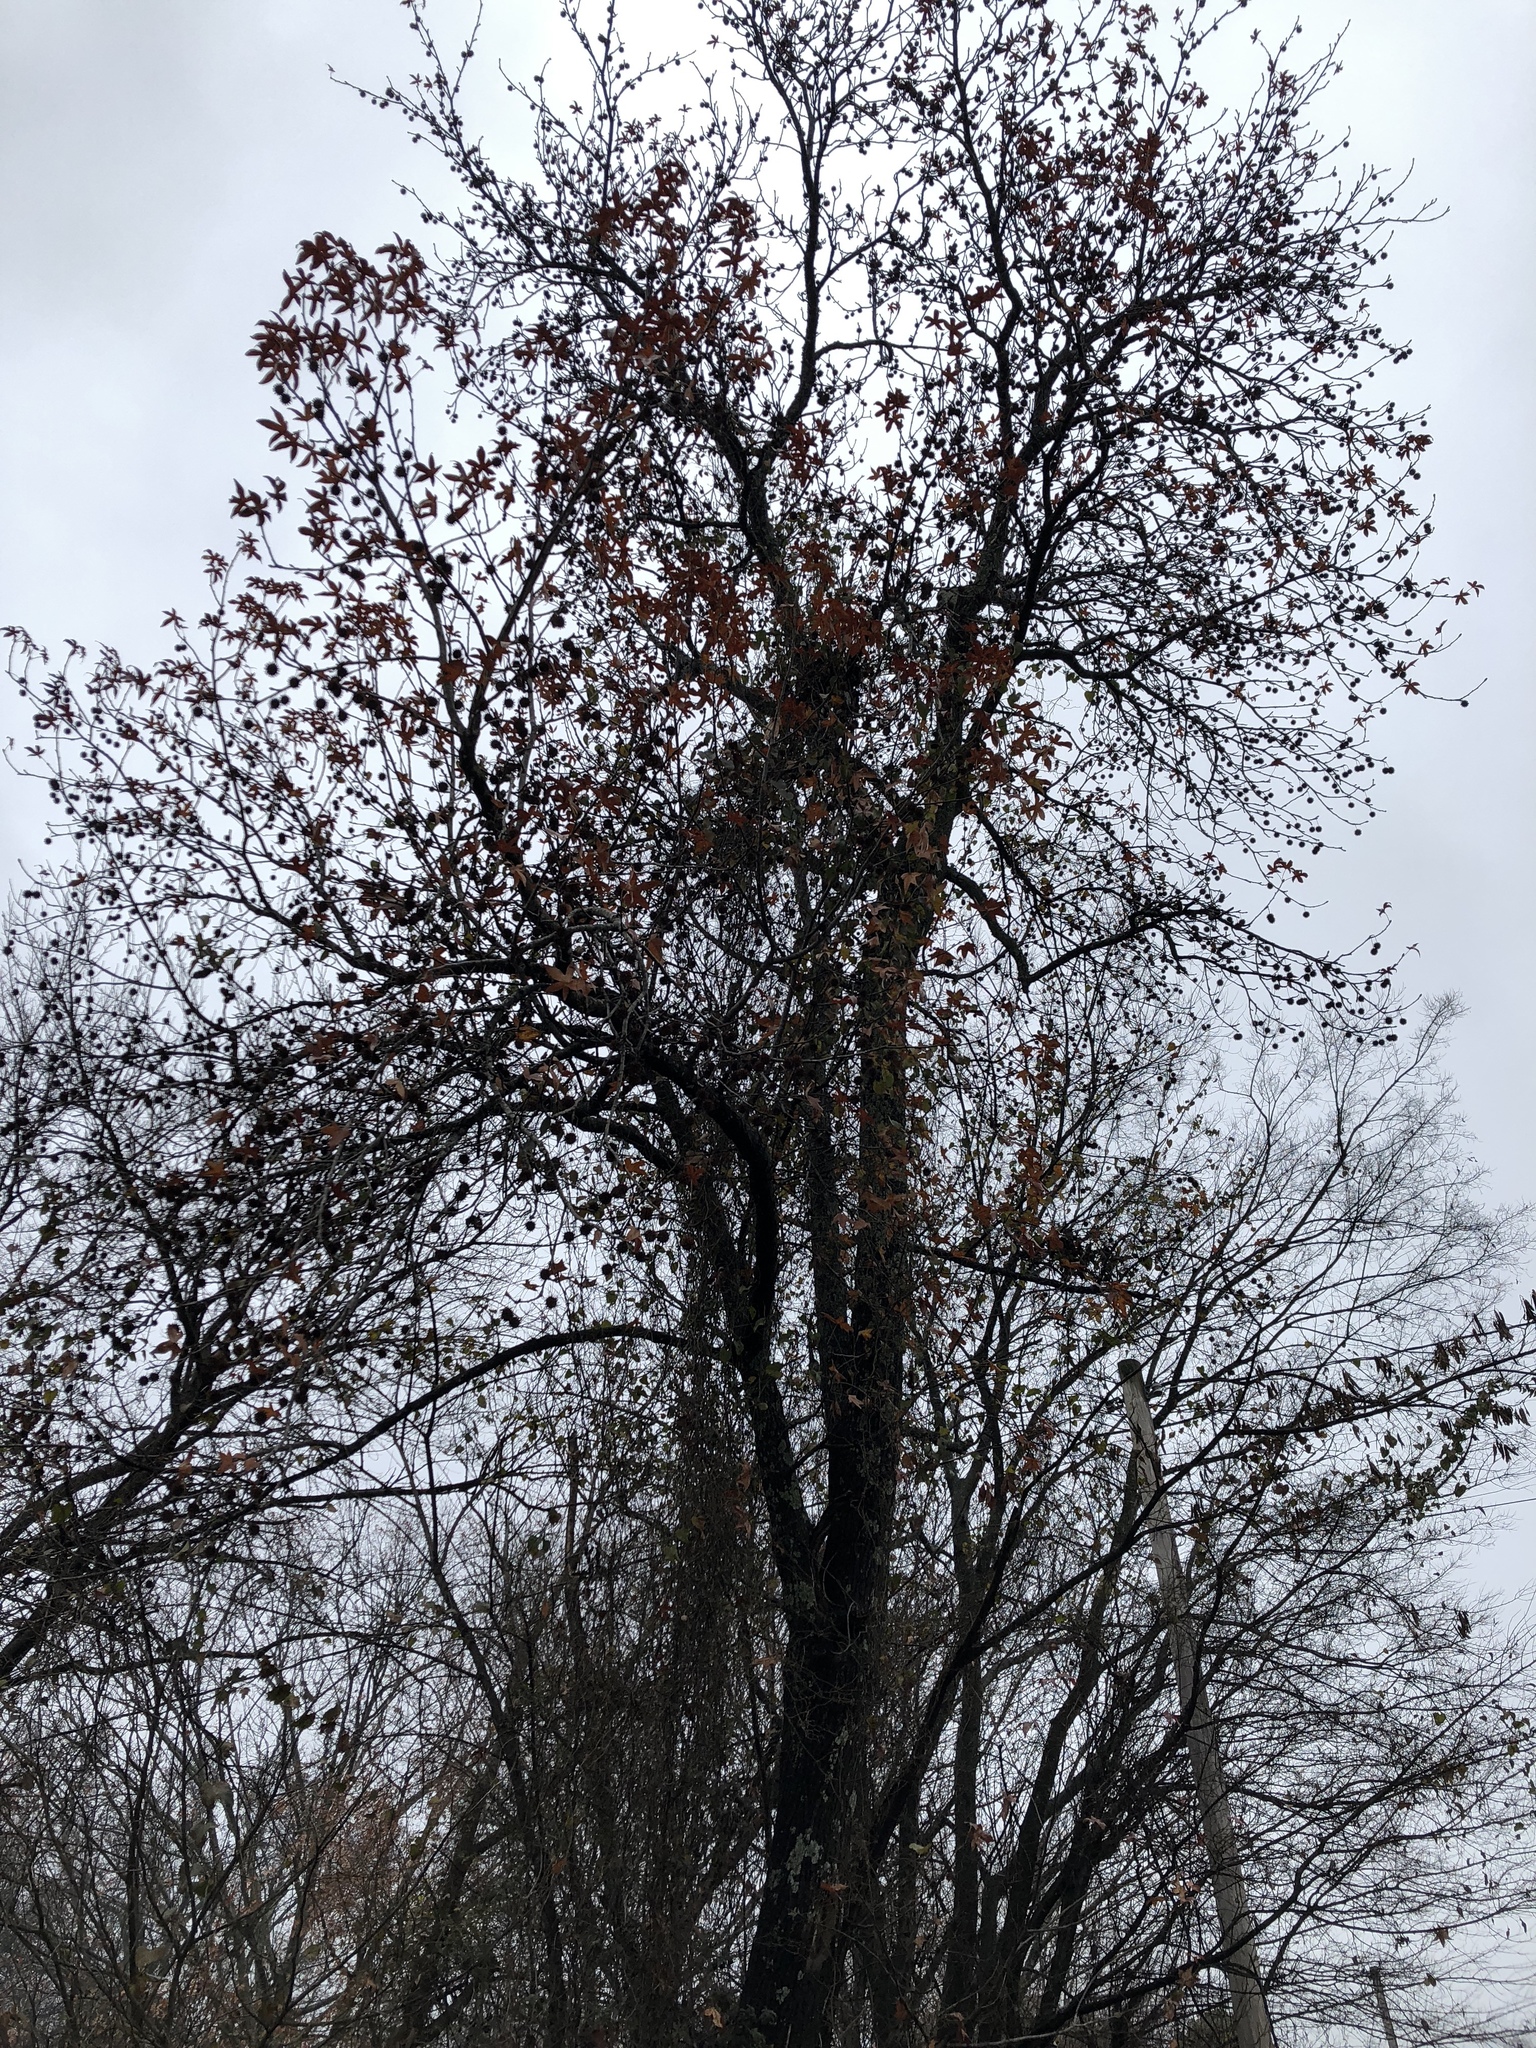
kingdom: Plantae
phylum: Tracheophyta
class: Magnoliopsida
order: Saxifragales
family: Altingiaceae
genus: Liquidambar
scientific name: Liquidambar styraciflua
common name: Sweet gum
